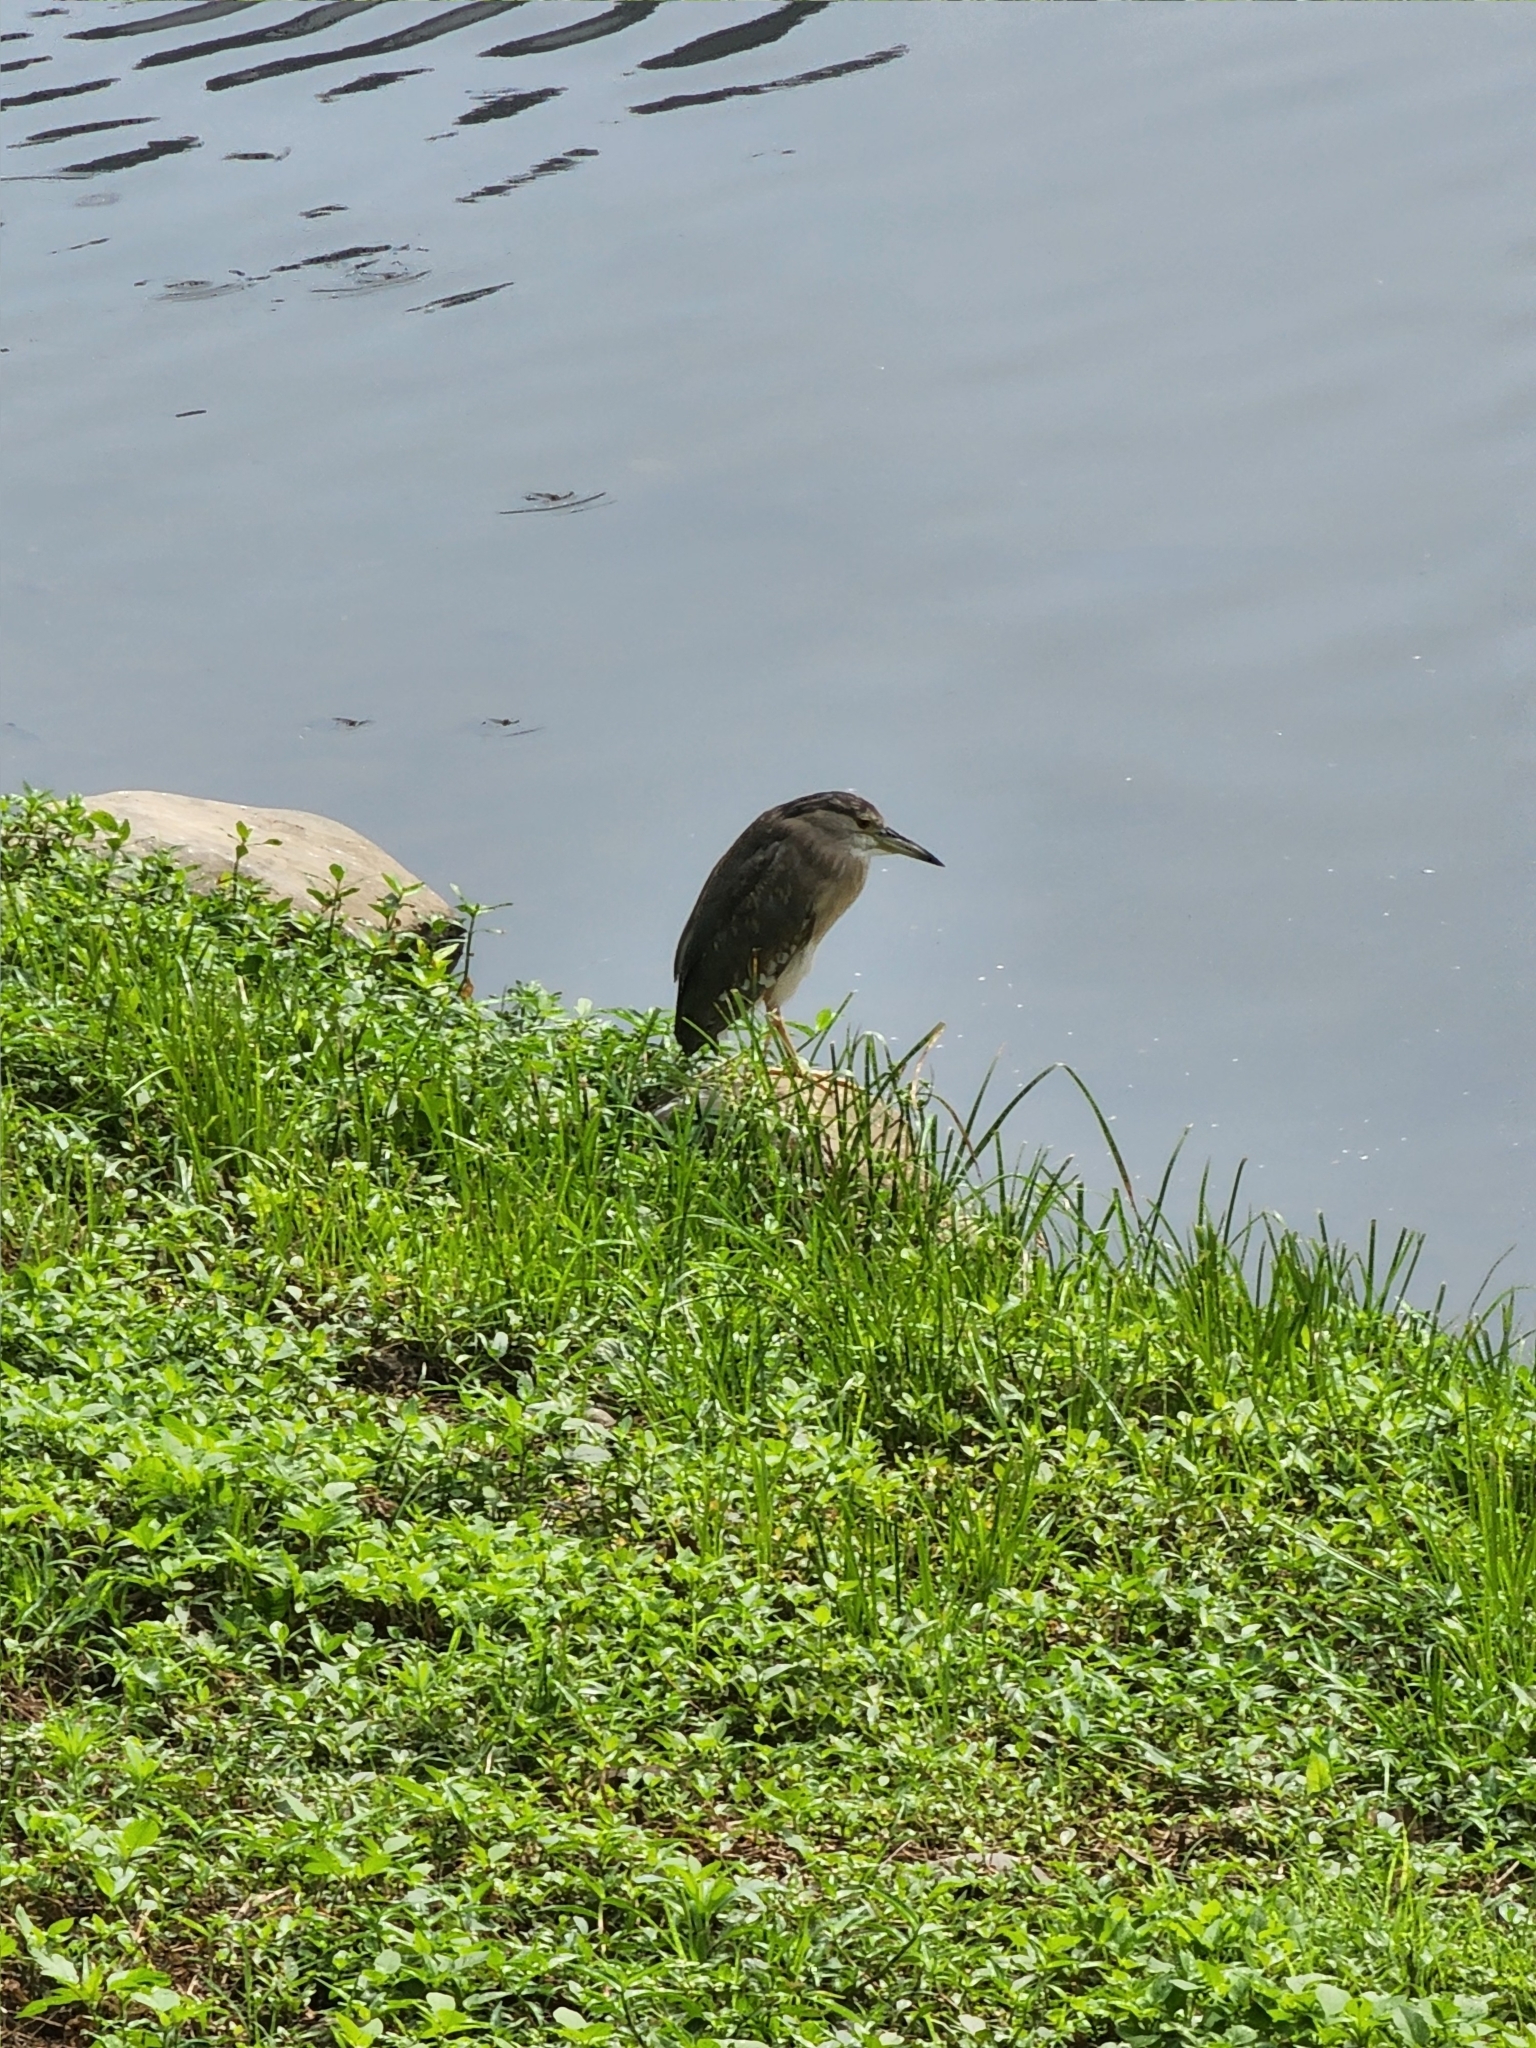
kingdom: Animalia
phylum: Chordata
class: Aves
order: Pelecaniformes
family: Ardeidae
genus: Nycticorax
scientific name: Nycticorax nycticorax
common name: Black-crowned night heron
